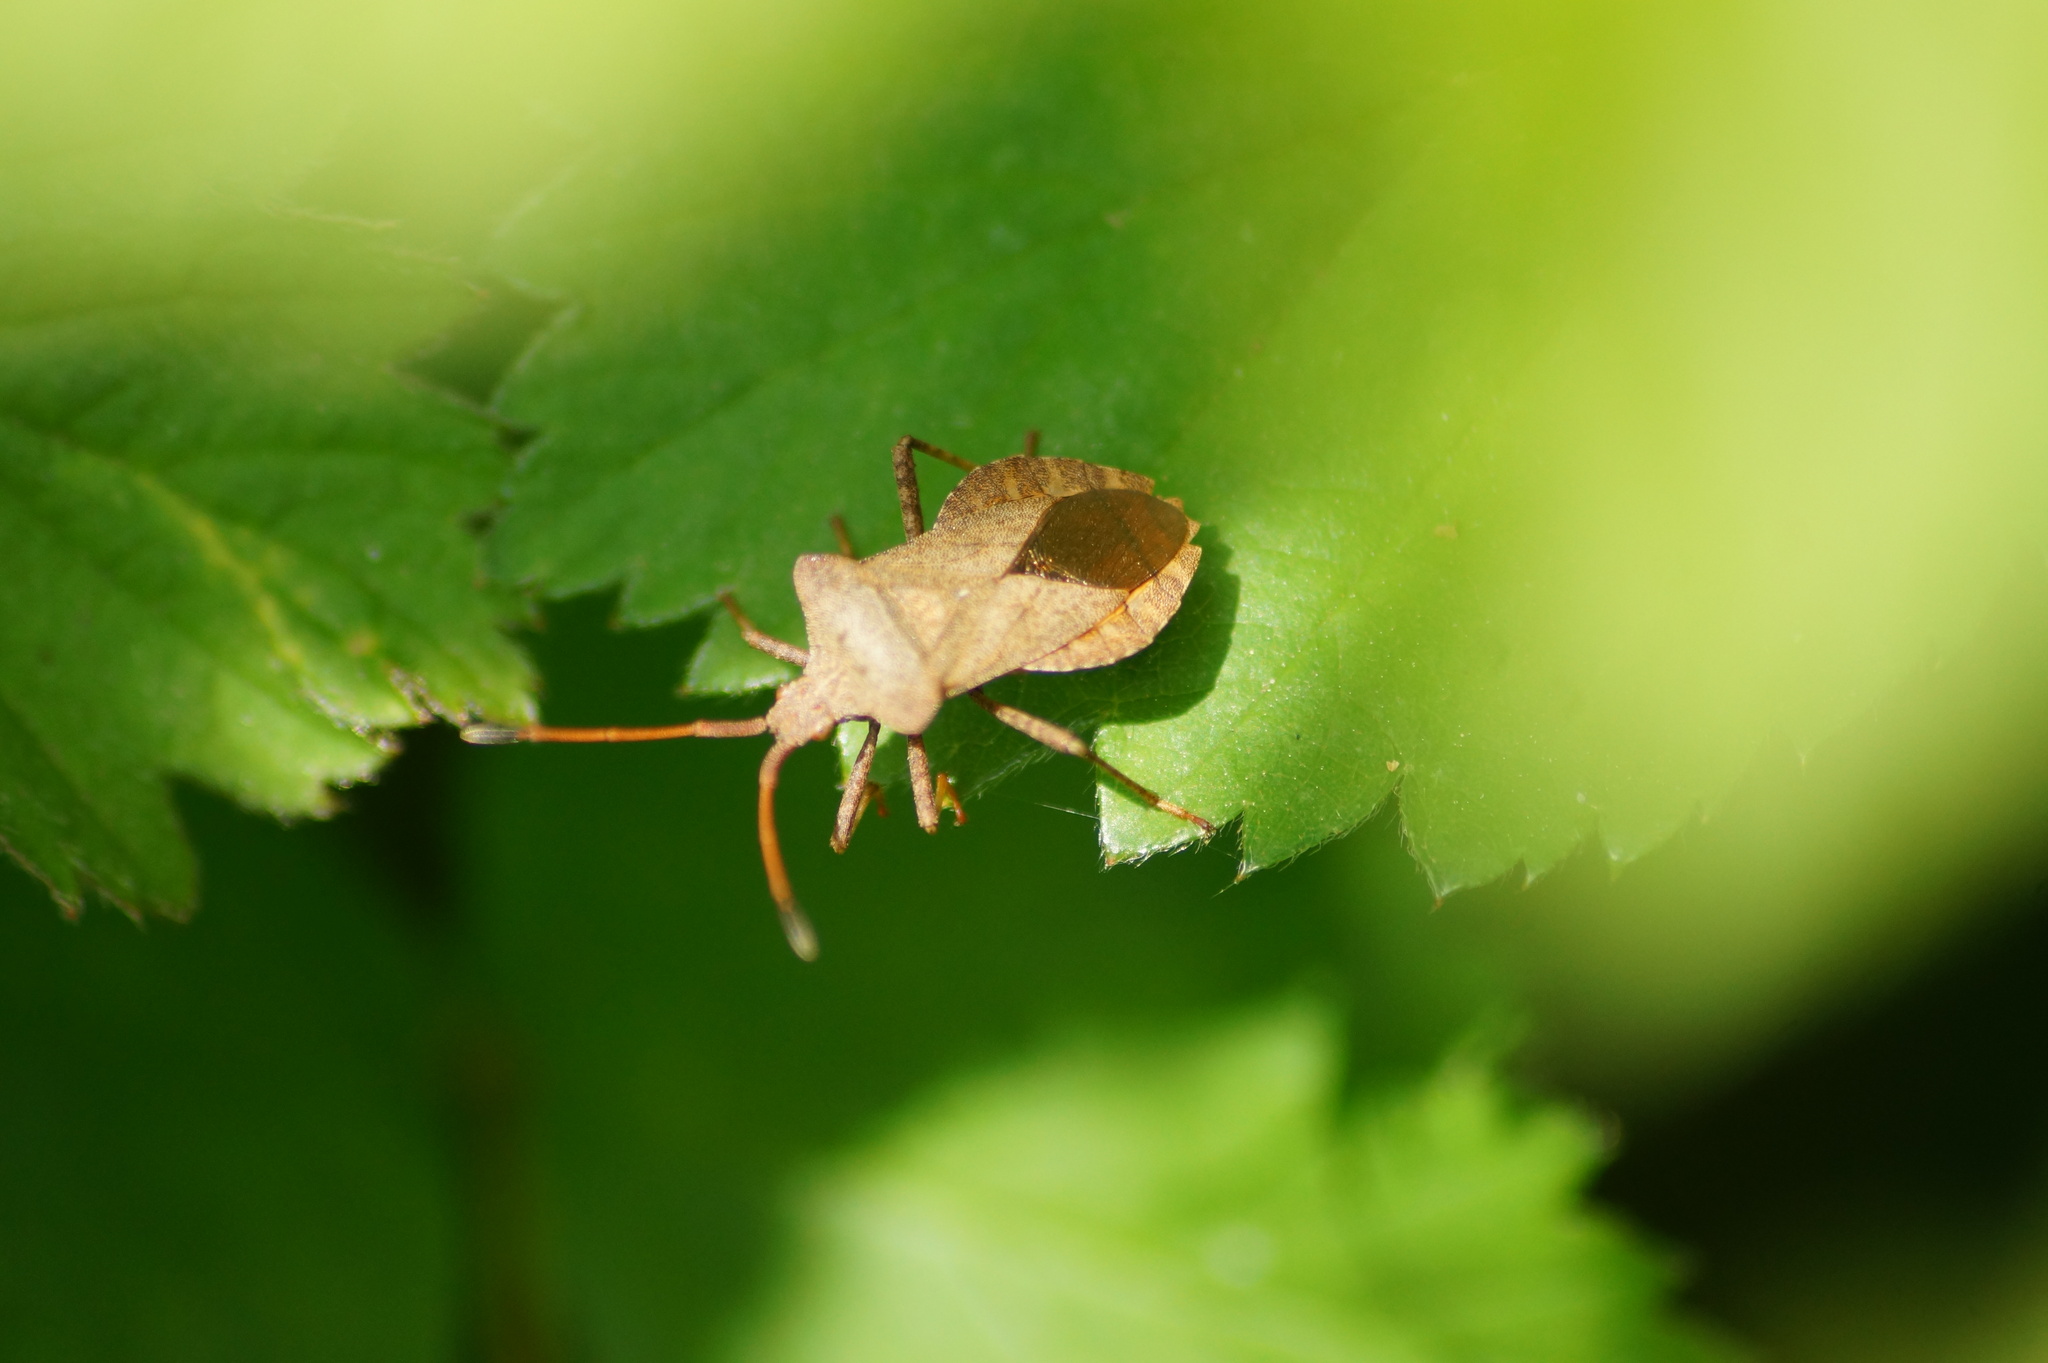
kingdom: Animalia
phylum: Arthropoda
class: Insecta
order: Hemiptera
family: Coreidae
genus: Coreus
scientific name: Coreus marginatus
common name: Dock bug
